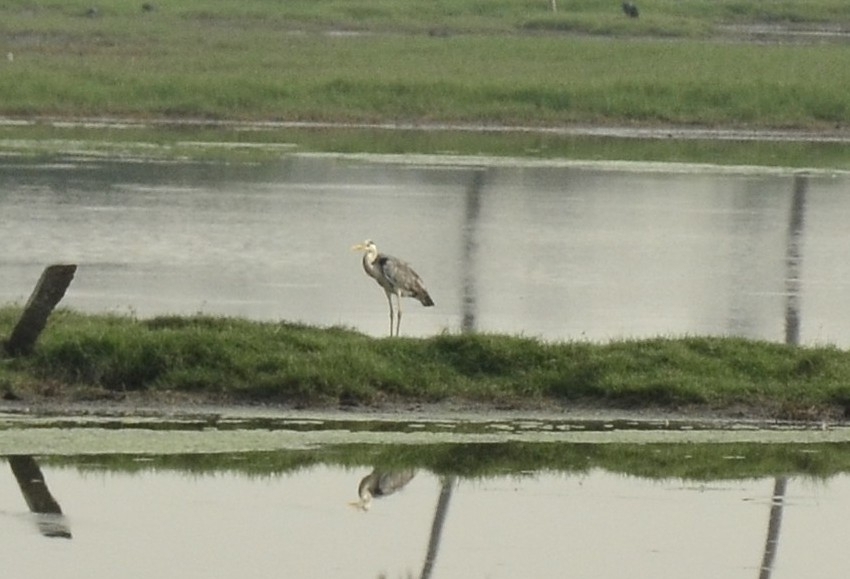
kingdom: Animalia
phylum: Chordata
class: Aves
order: Pelecaniformes
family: Ardeidae
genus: Ardea
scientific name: Ardea cinerea
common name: Grey heron
